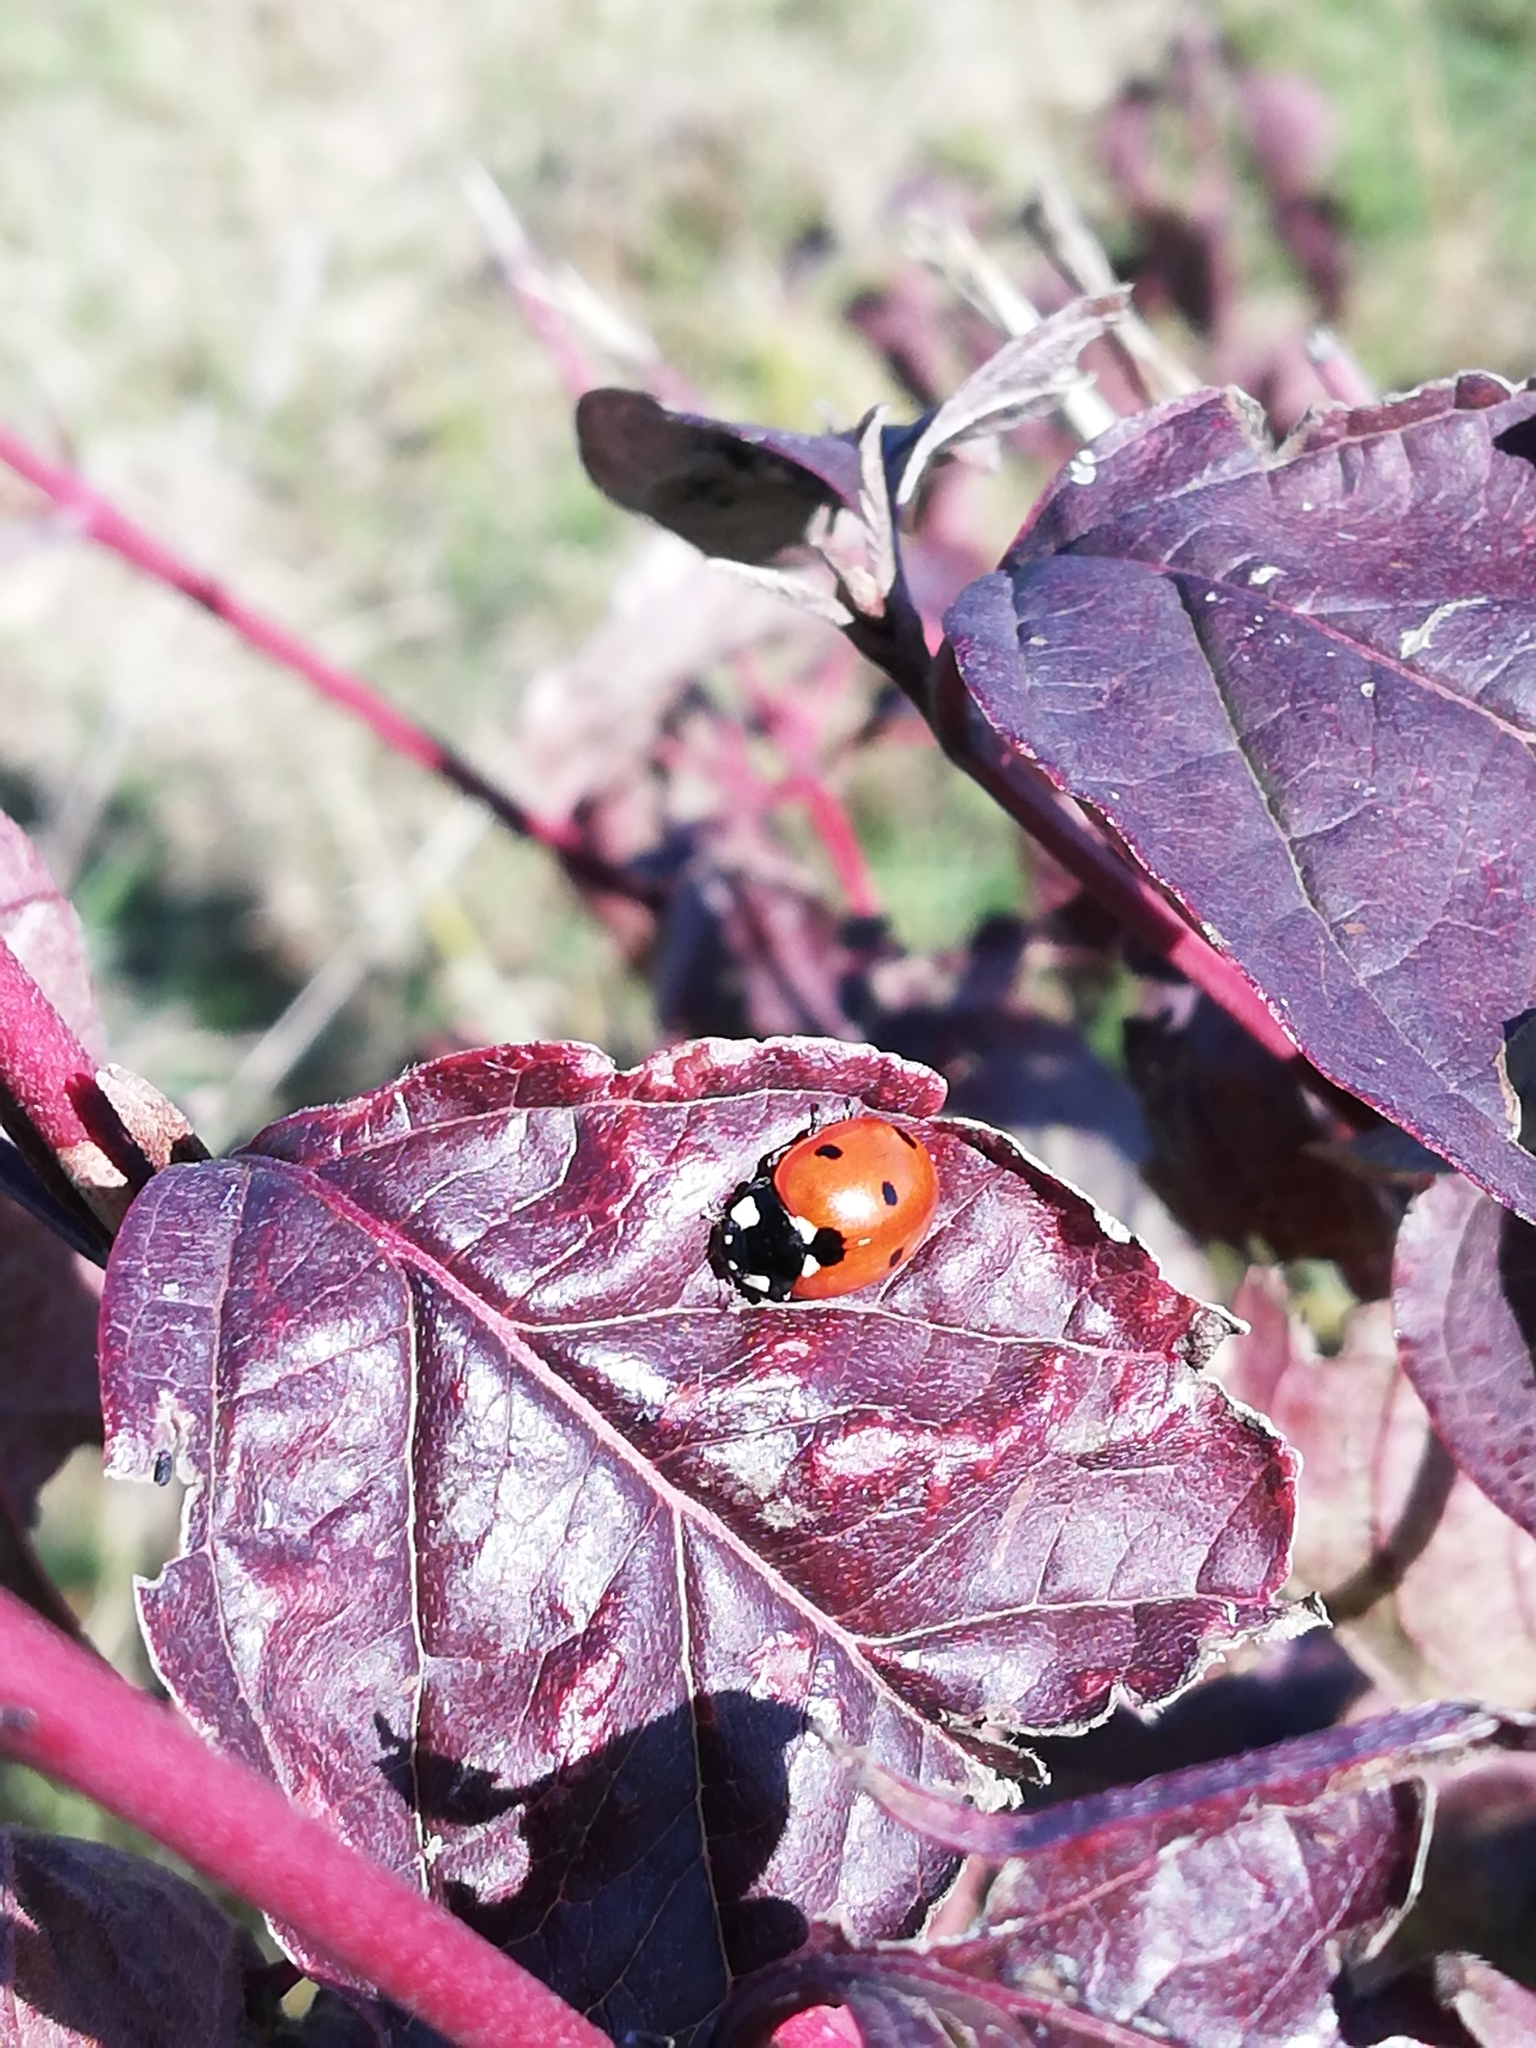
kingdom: Animalia
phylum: Arthropoda
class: Insecta
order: Coleoptera
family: Coccinellidae
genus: Coccinella
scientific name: Coccinella septempunctata
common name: Sevenspotted lady beetle
